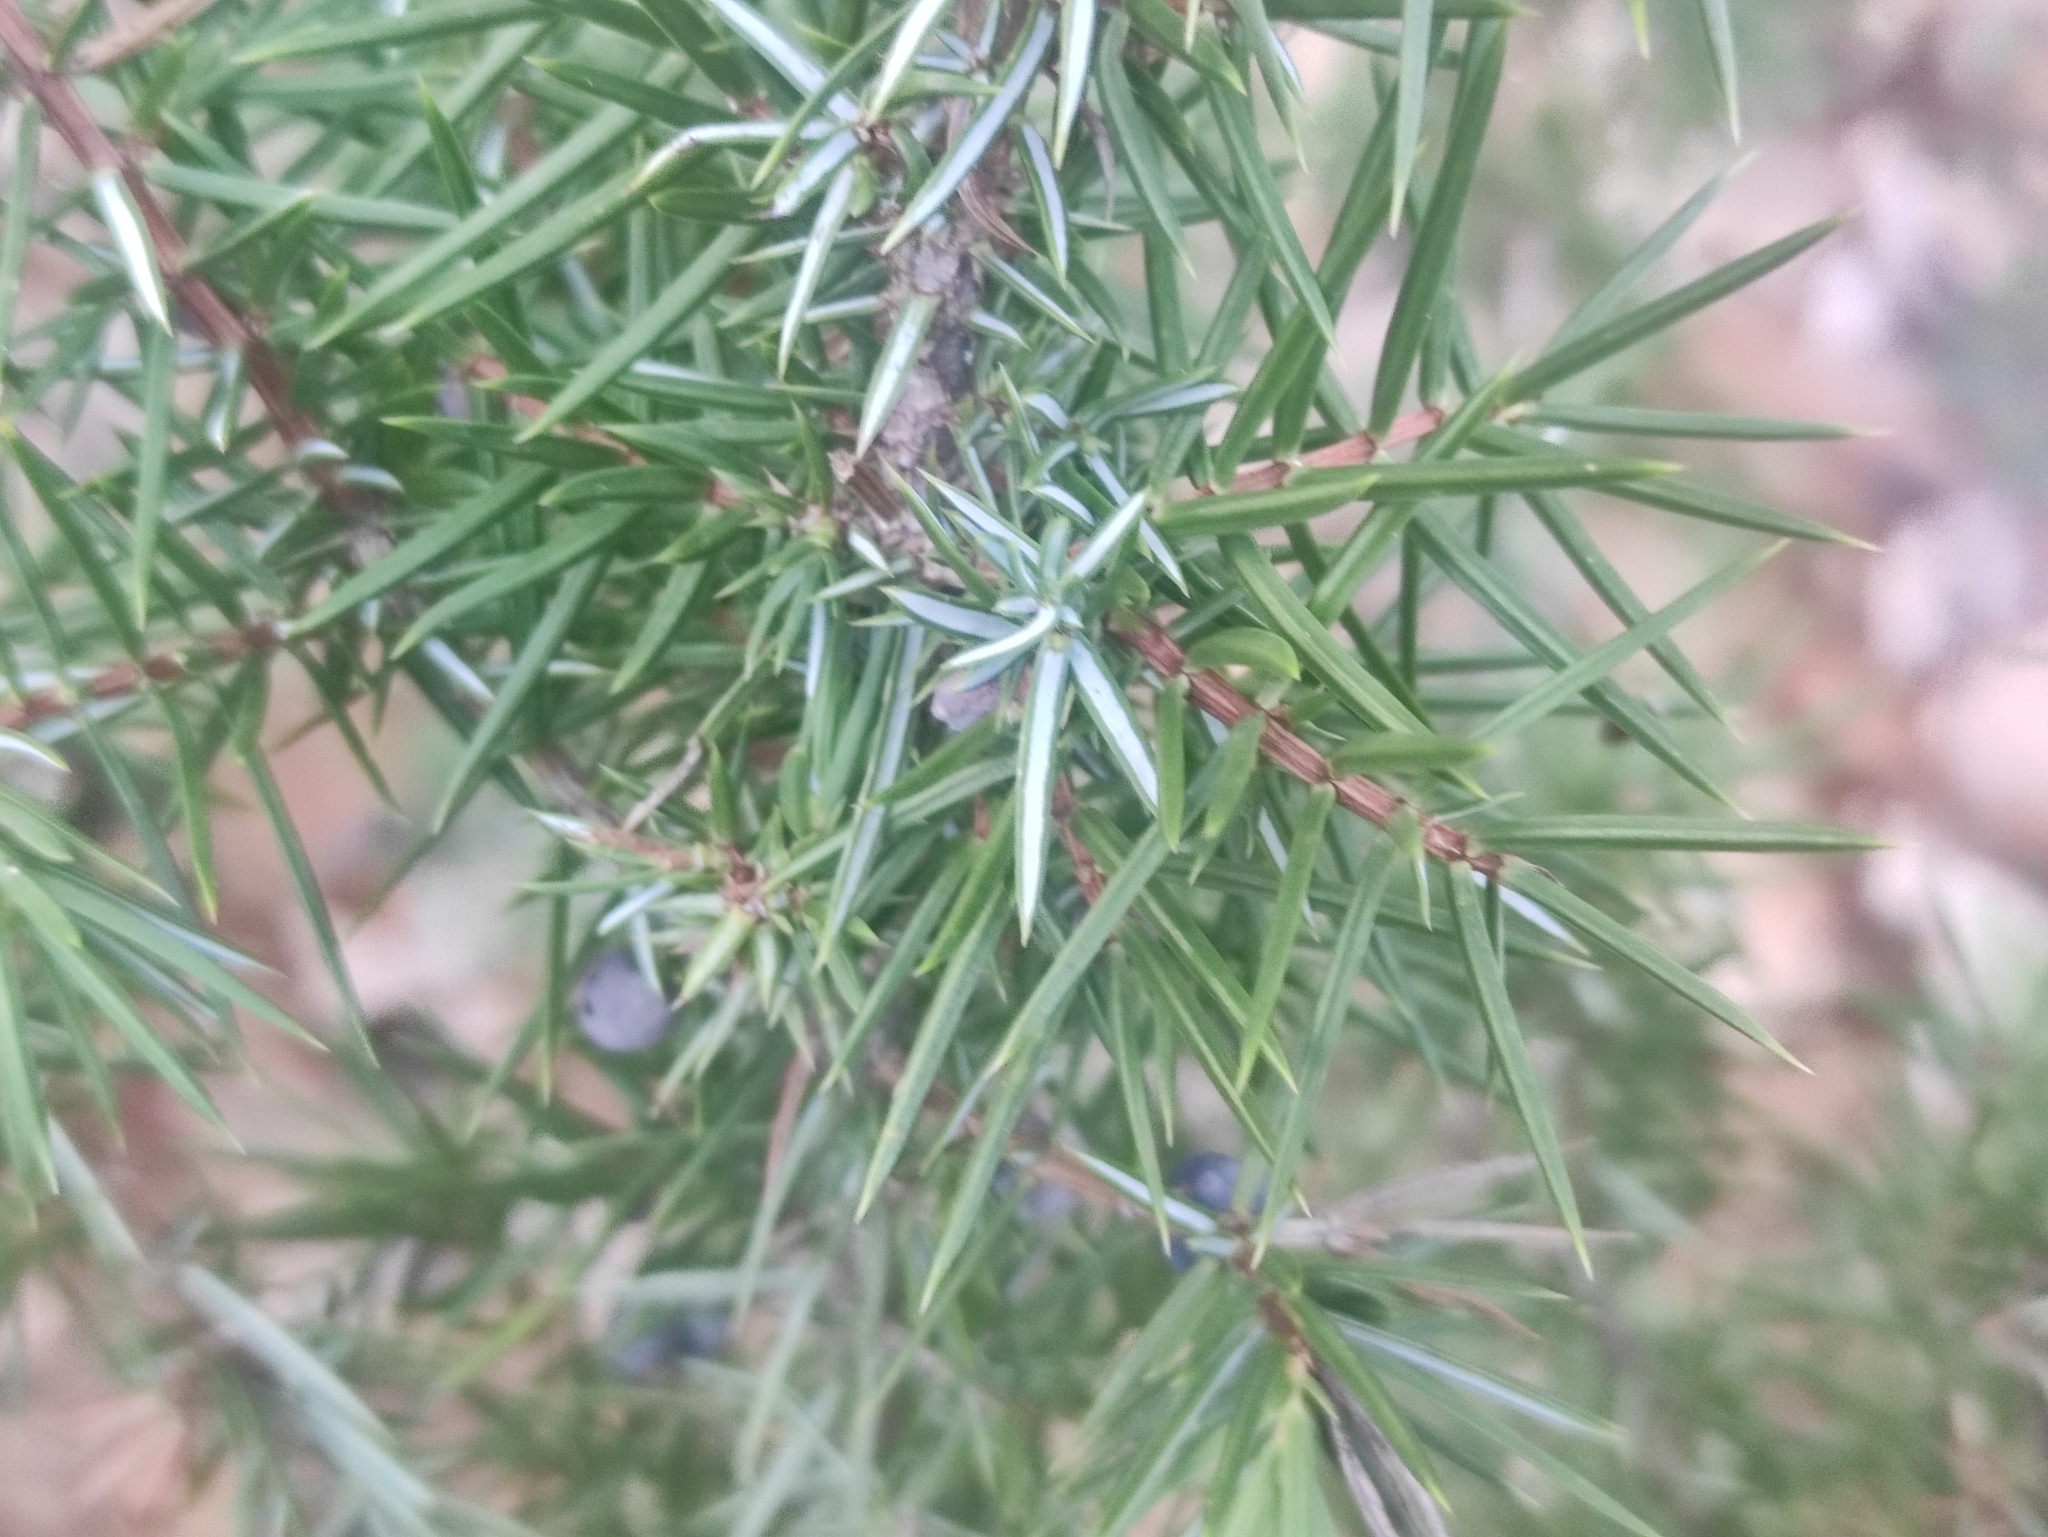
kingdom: Plantae
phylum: Tracheophyta
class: Pinopsida
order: Pinales
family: Cupressaceae
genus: Juniperus
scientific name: Juniperus communis
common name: Common juniper
